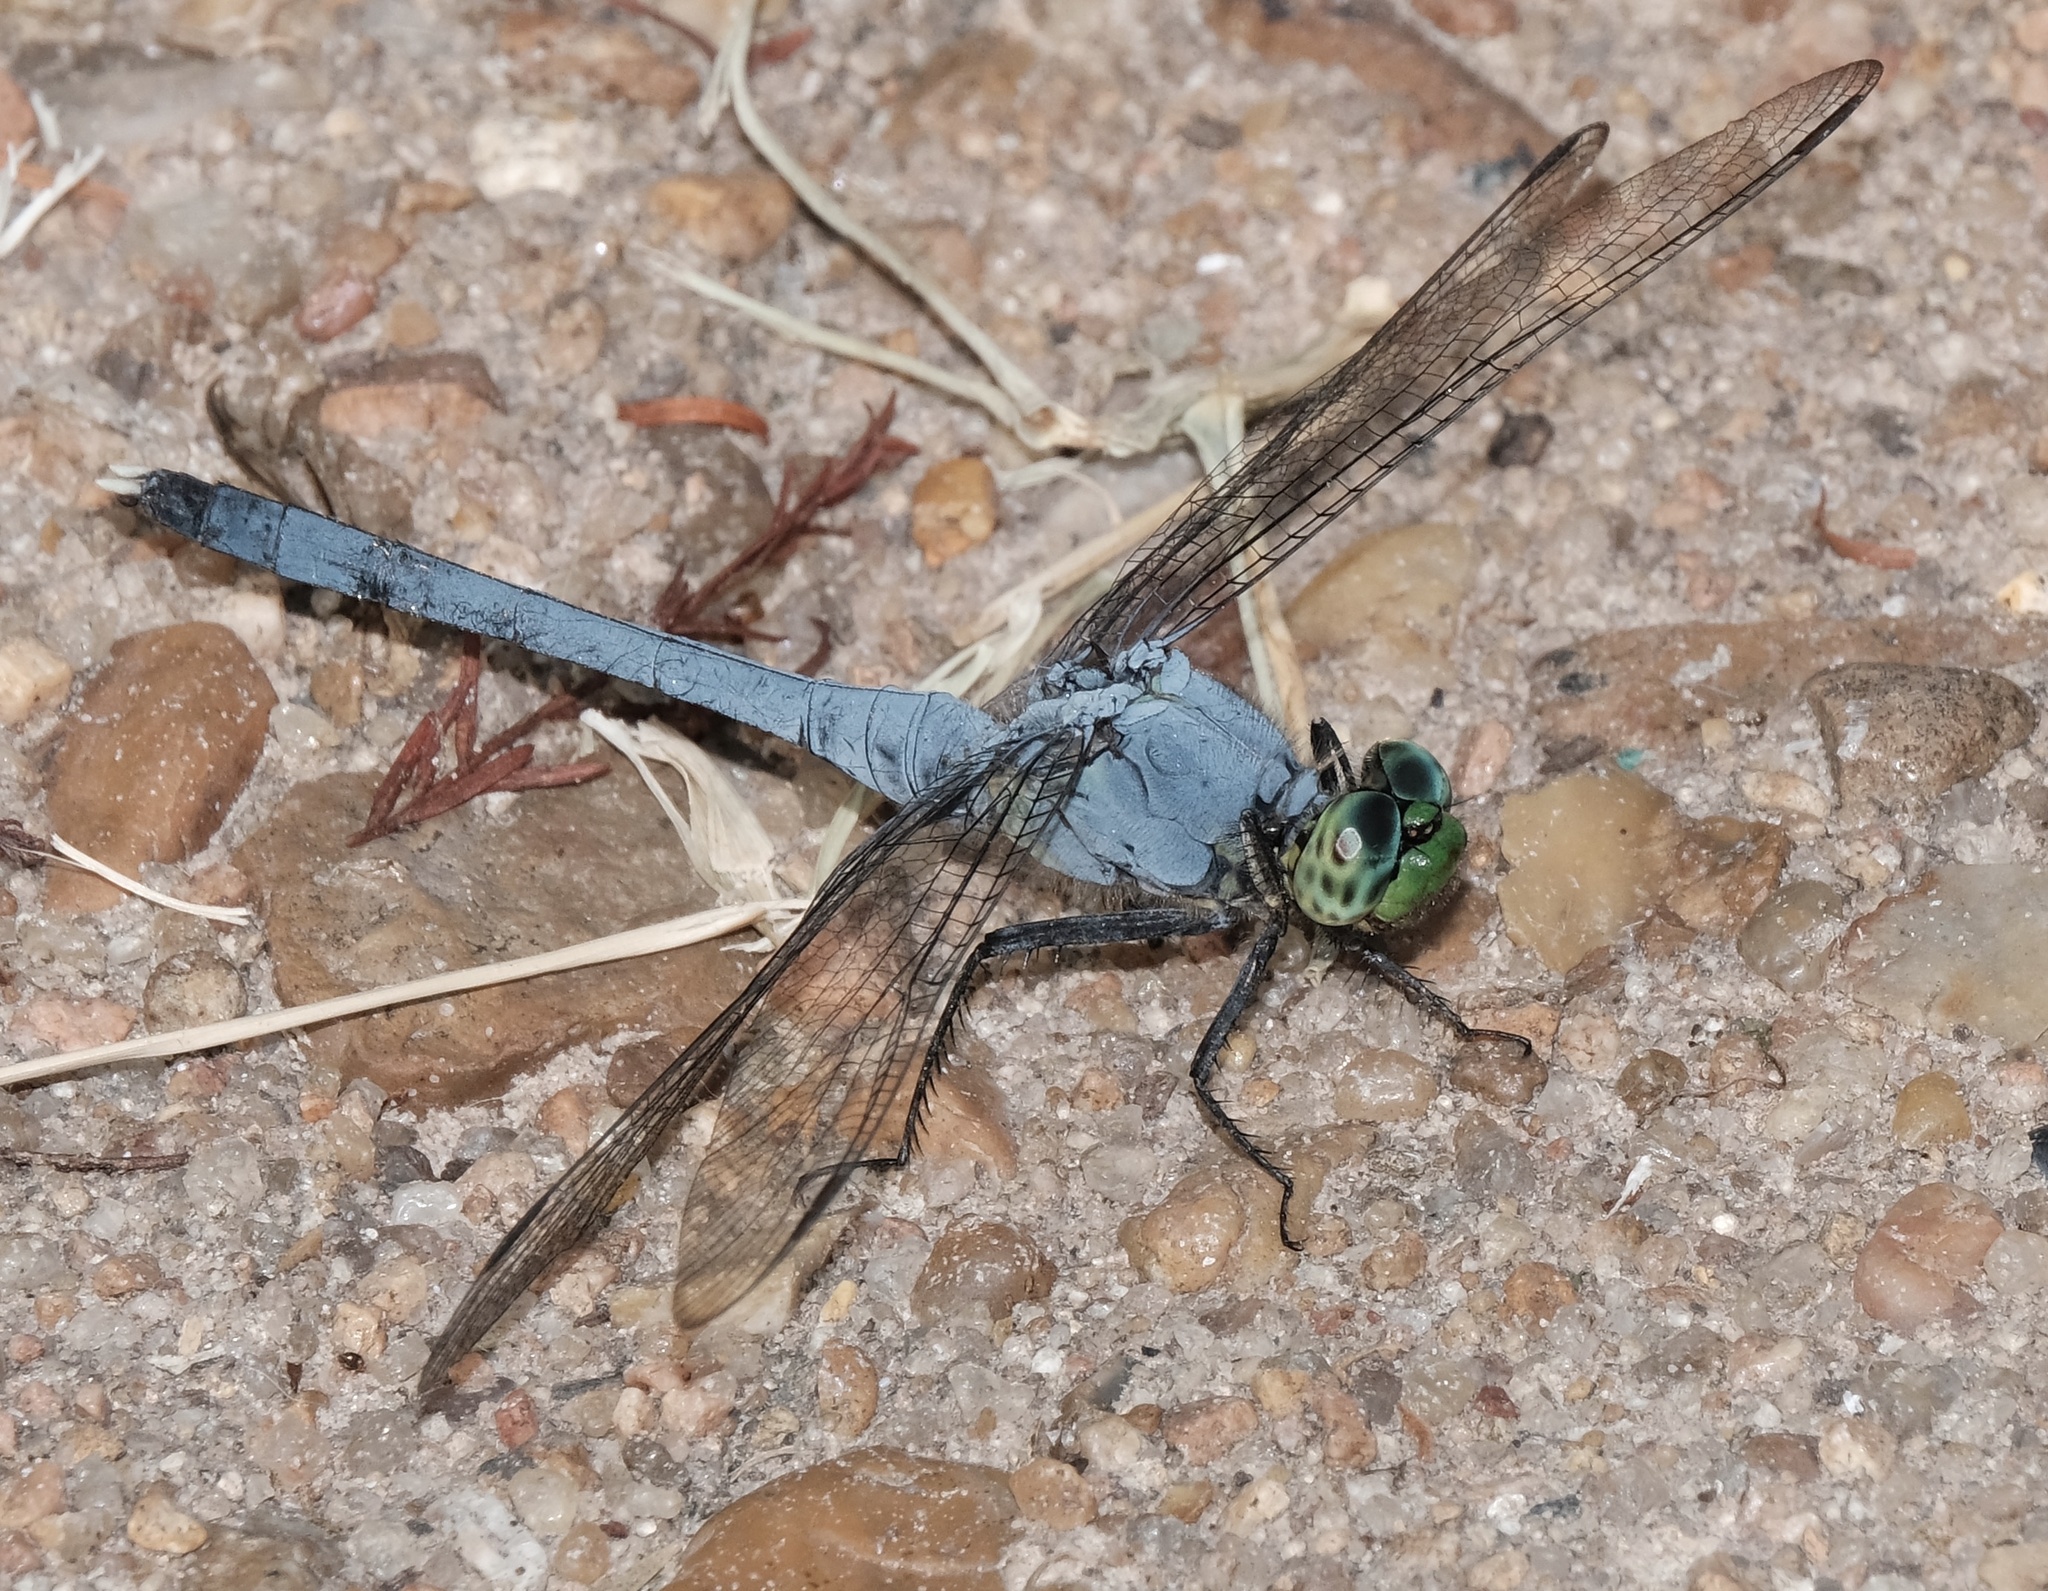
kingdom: Animalia
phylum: Arthropoda
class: Insecta
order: Odonata
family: Libellulidae
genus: Erythemis
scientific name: Erythemis simplicicollis
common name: Eastern pondhawk
